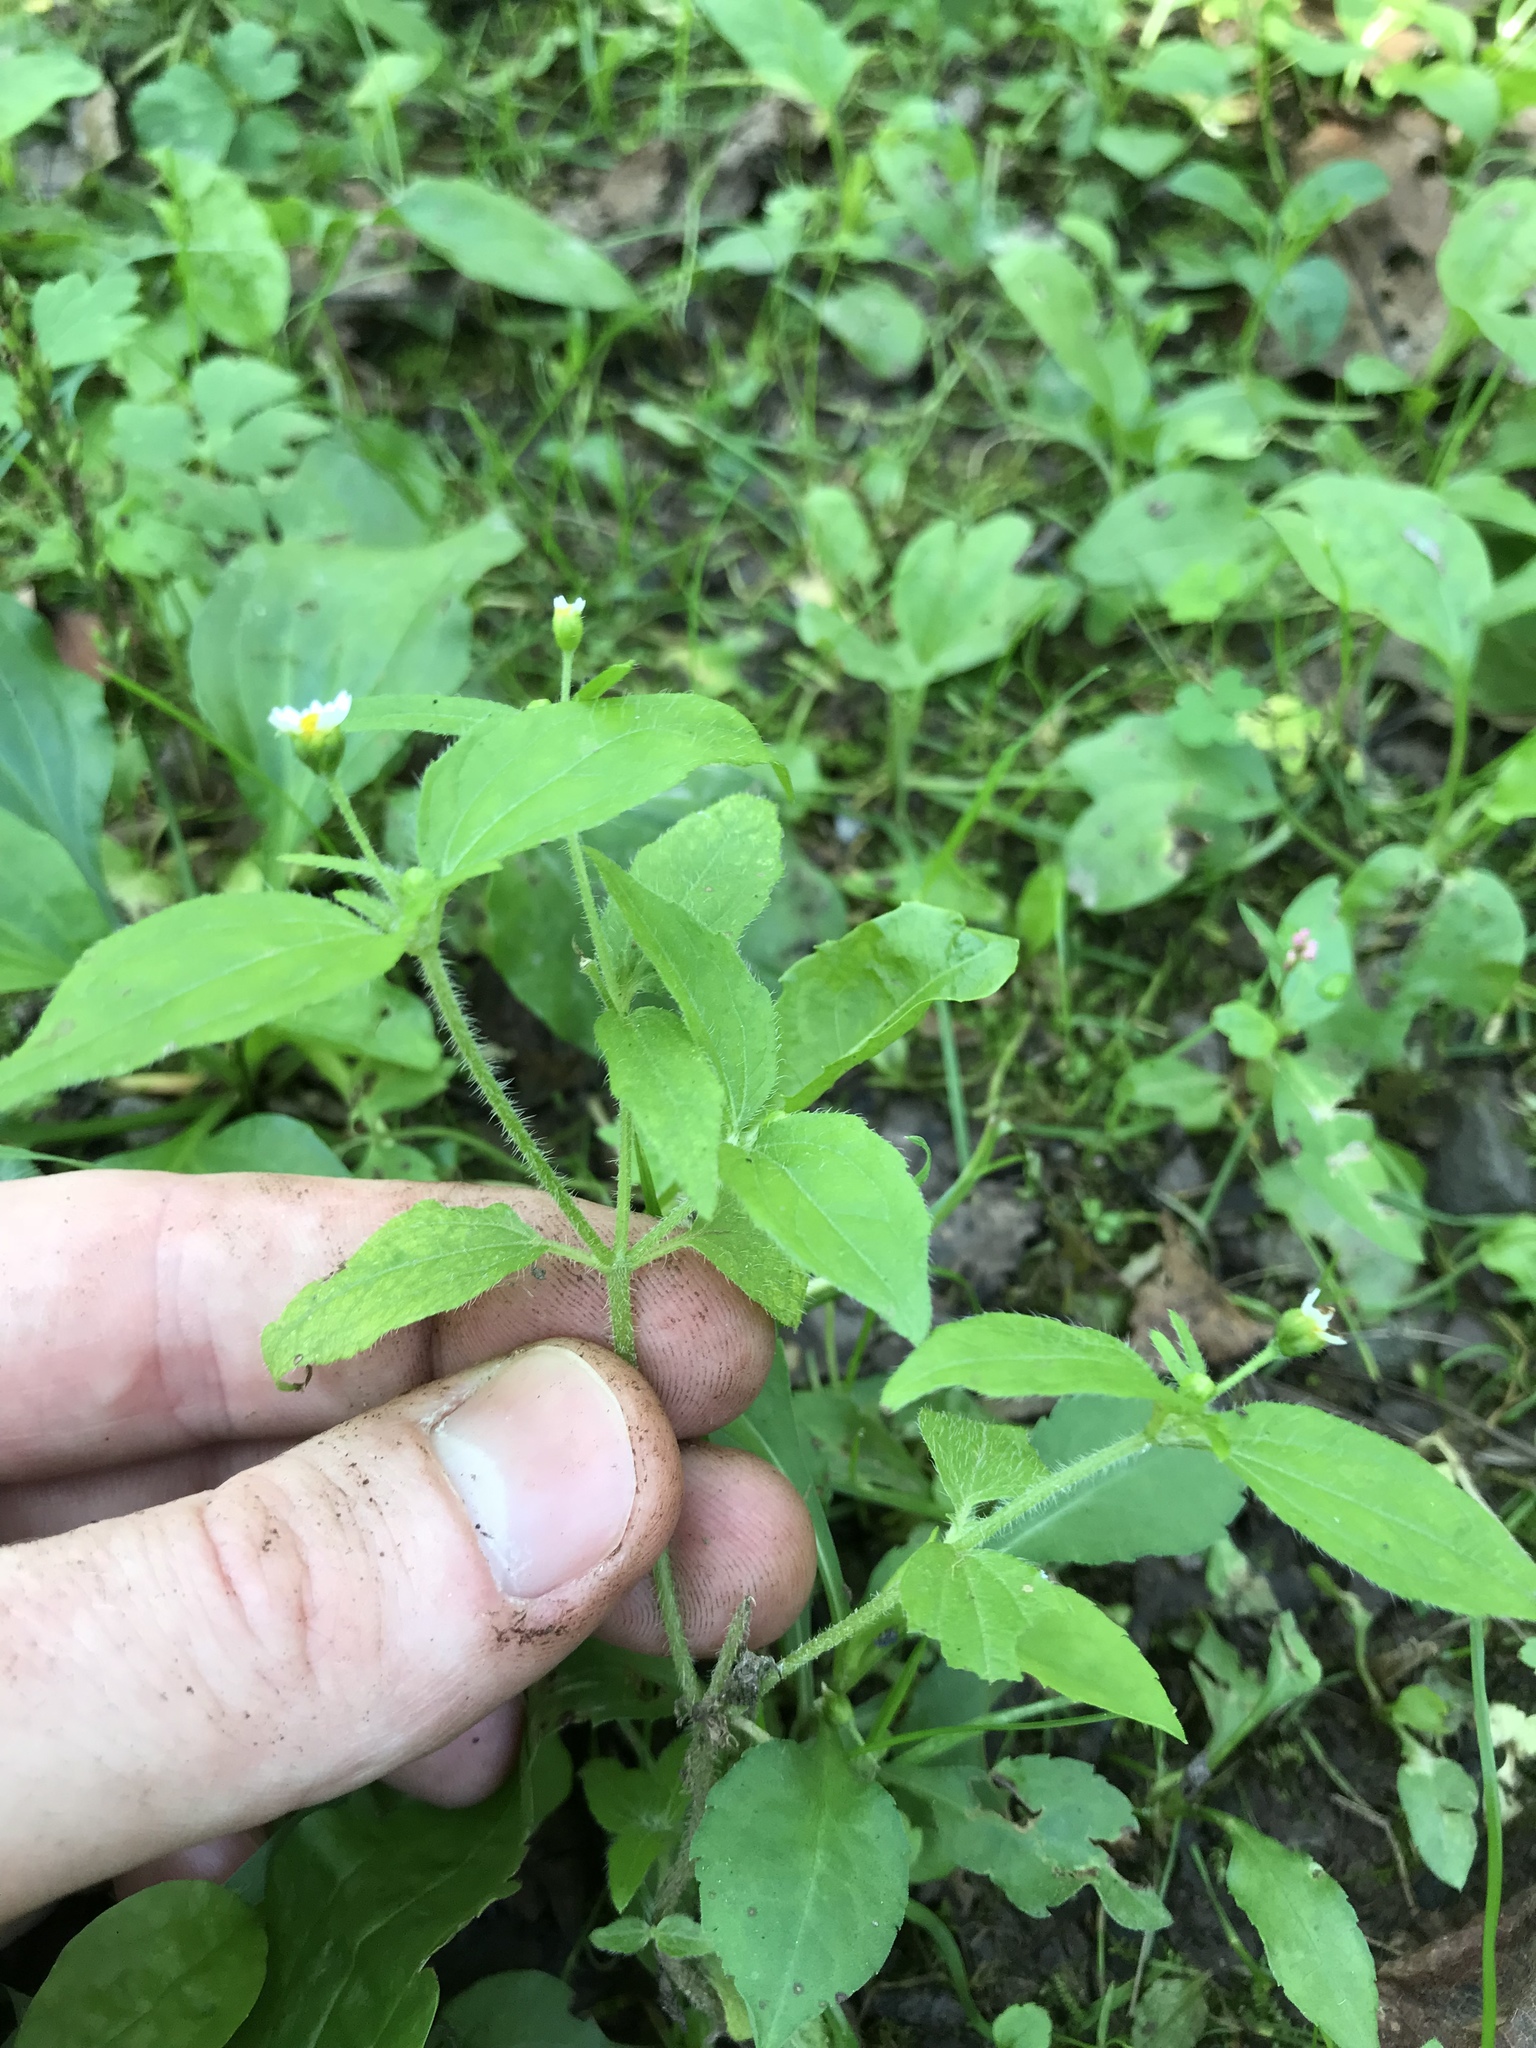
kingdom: Plantae
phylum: Tracheophyta
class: Magnoliopsida
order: Asterales
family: Asteraceae
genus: Galinsoga
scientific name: Galinsoga quadriradiata
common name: Shaggy soldier
